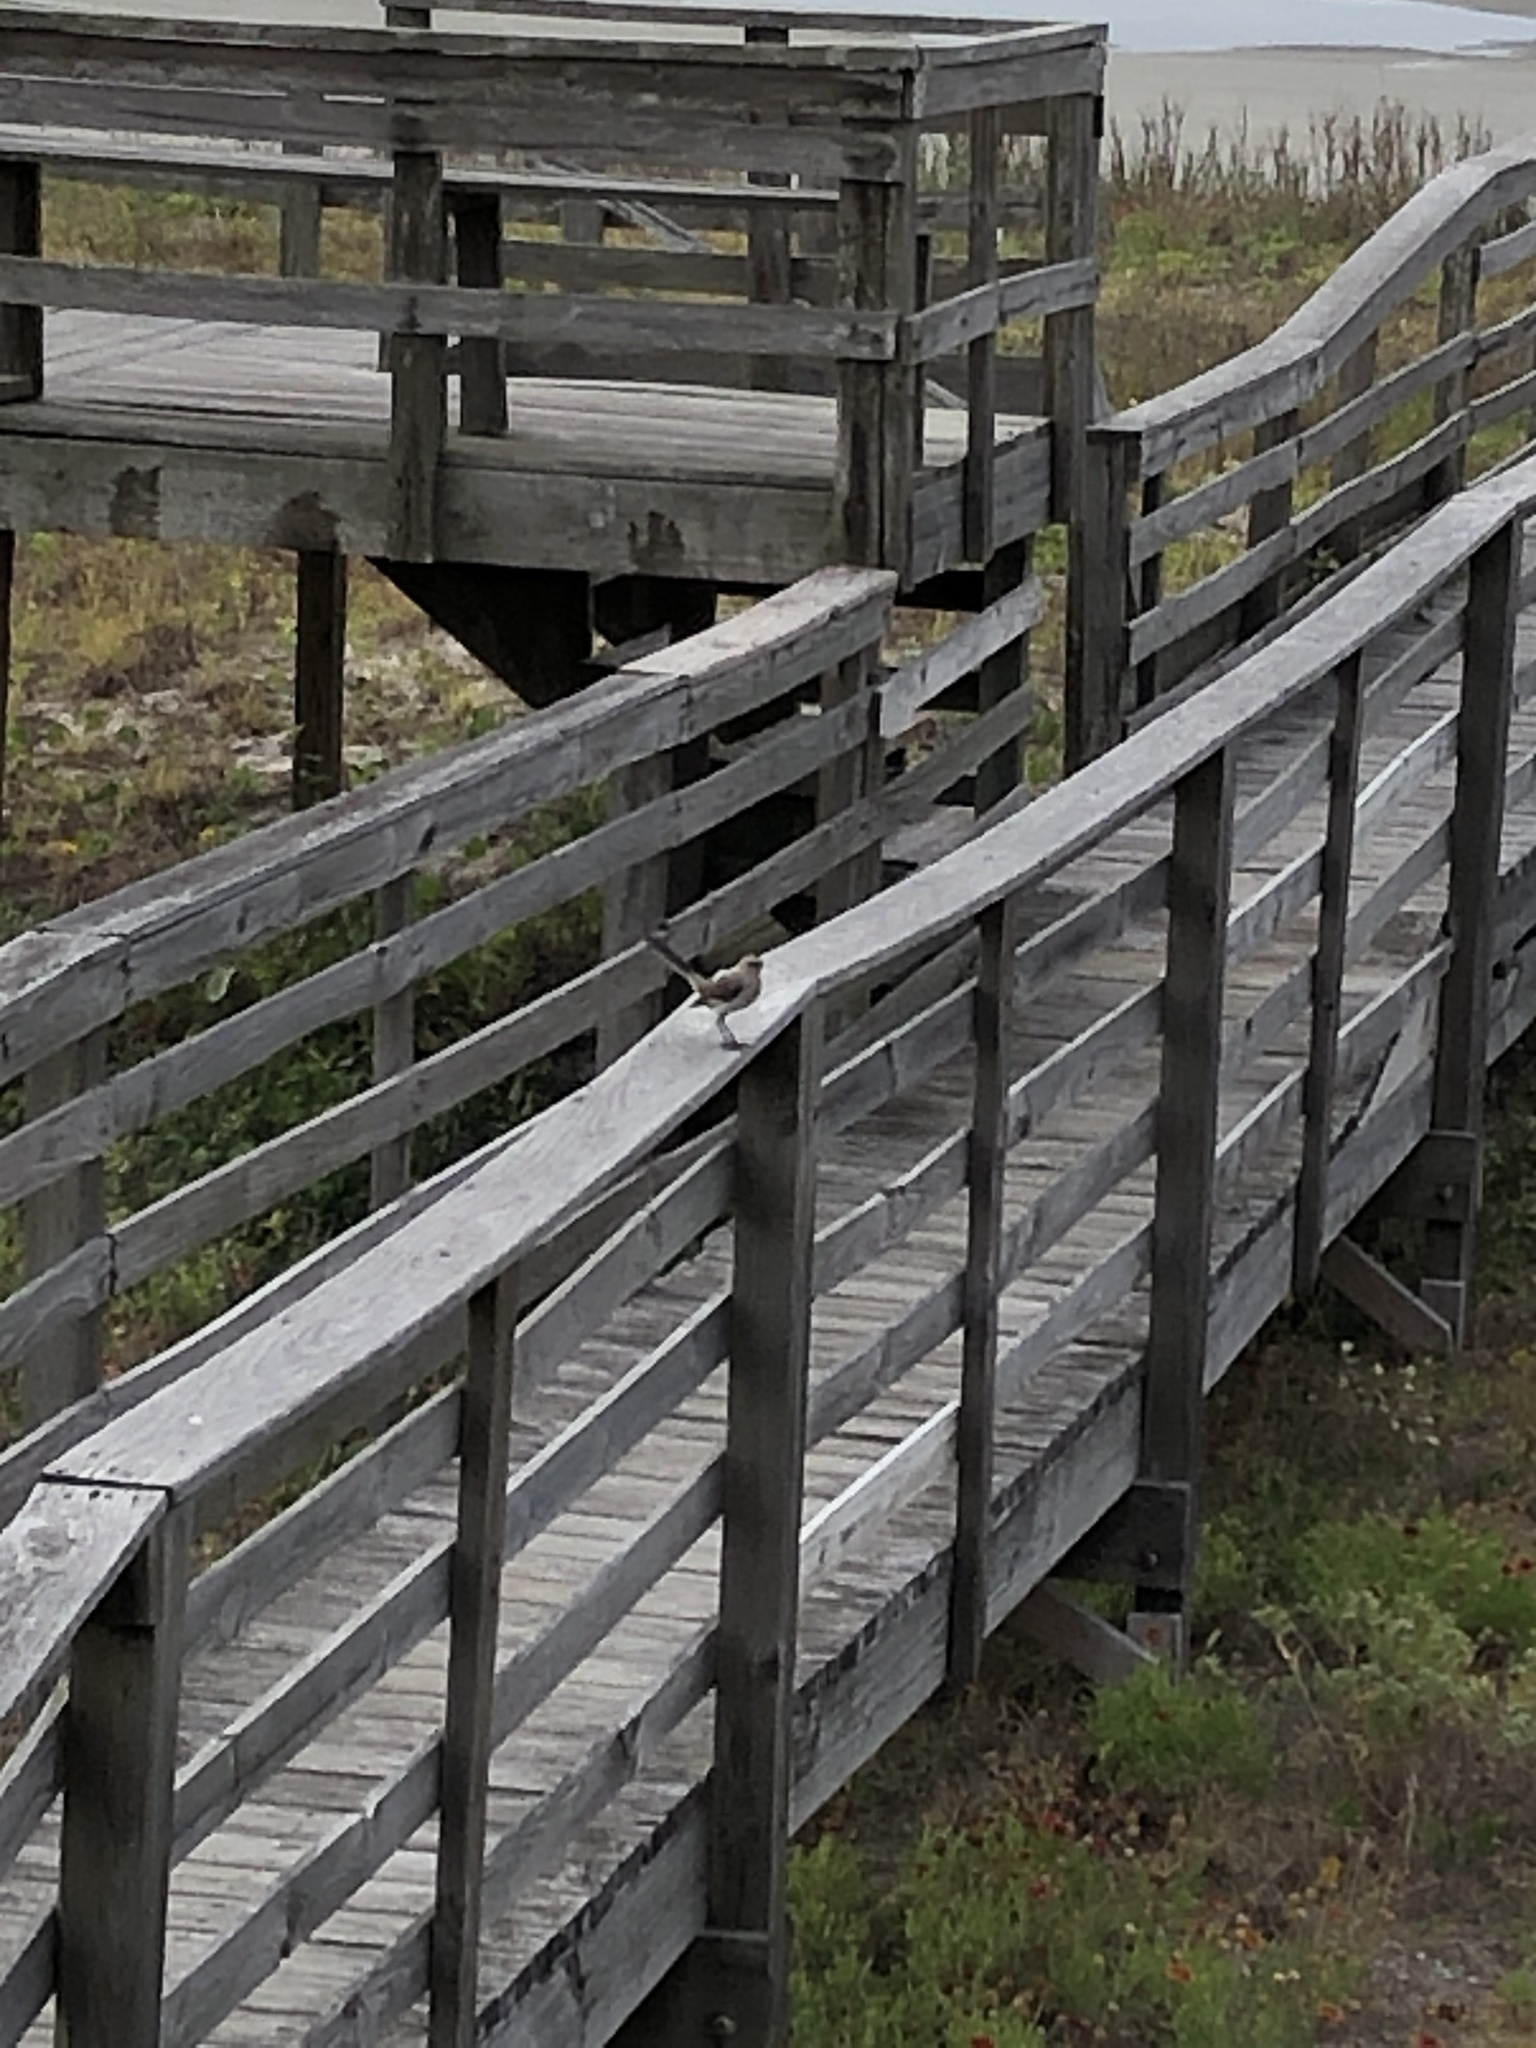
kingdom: Animalia
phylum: Chordata
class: Aves
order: Passeriformes
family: Mimidae
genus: Mimus
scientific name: Mimus polyglottos
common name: Northern mockingbird
